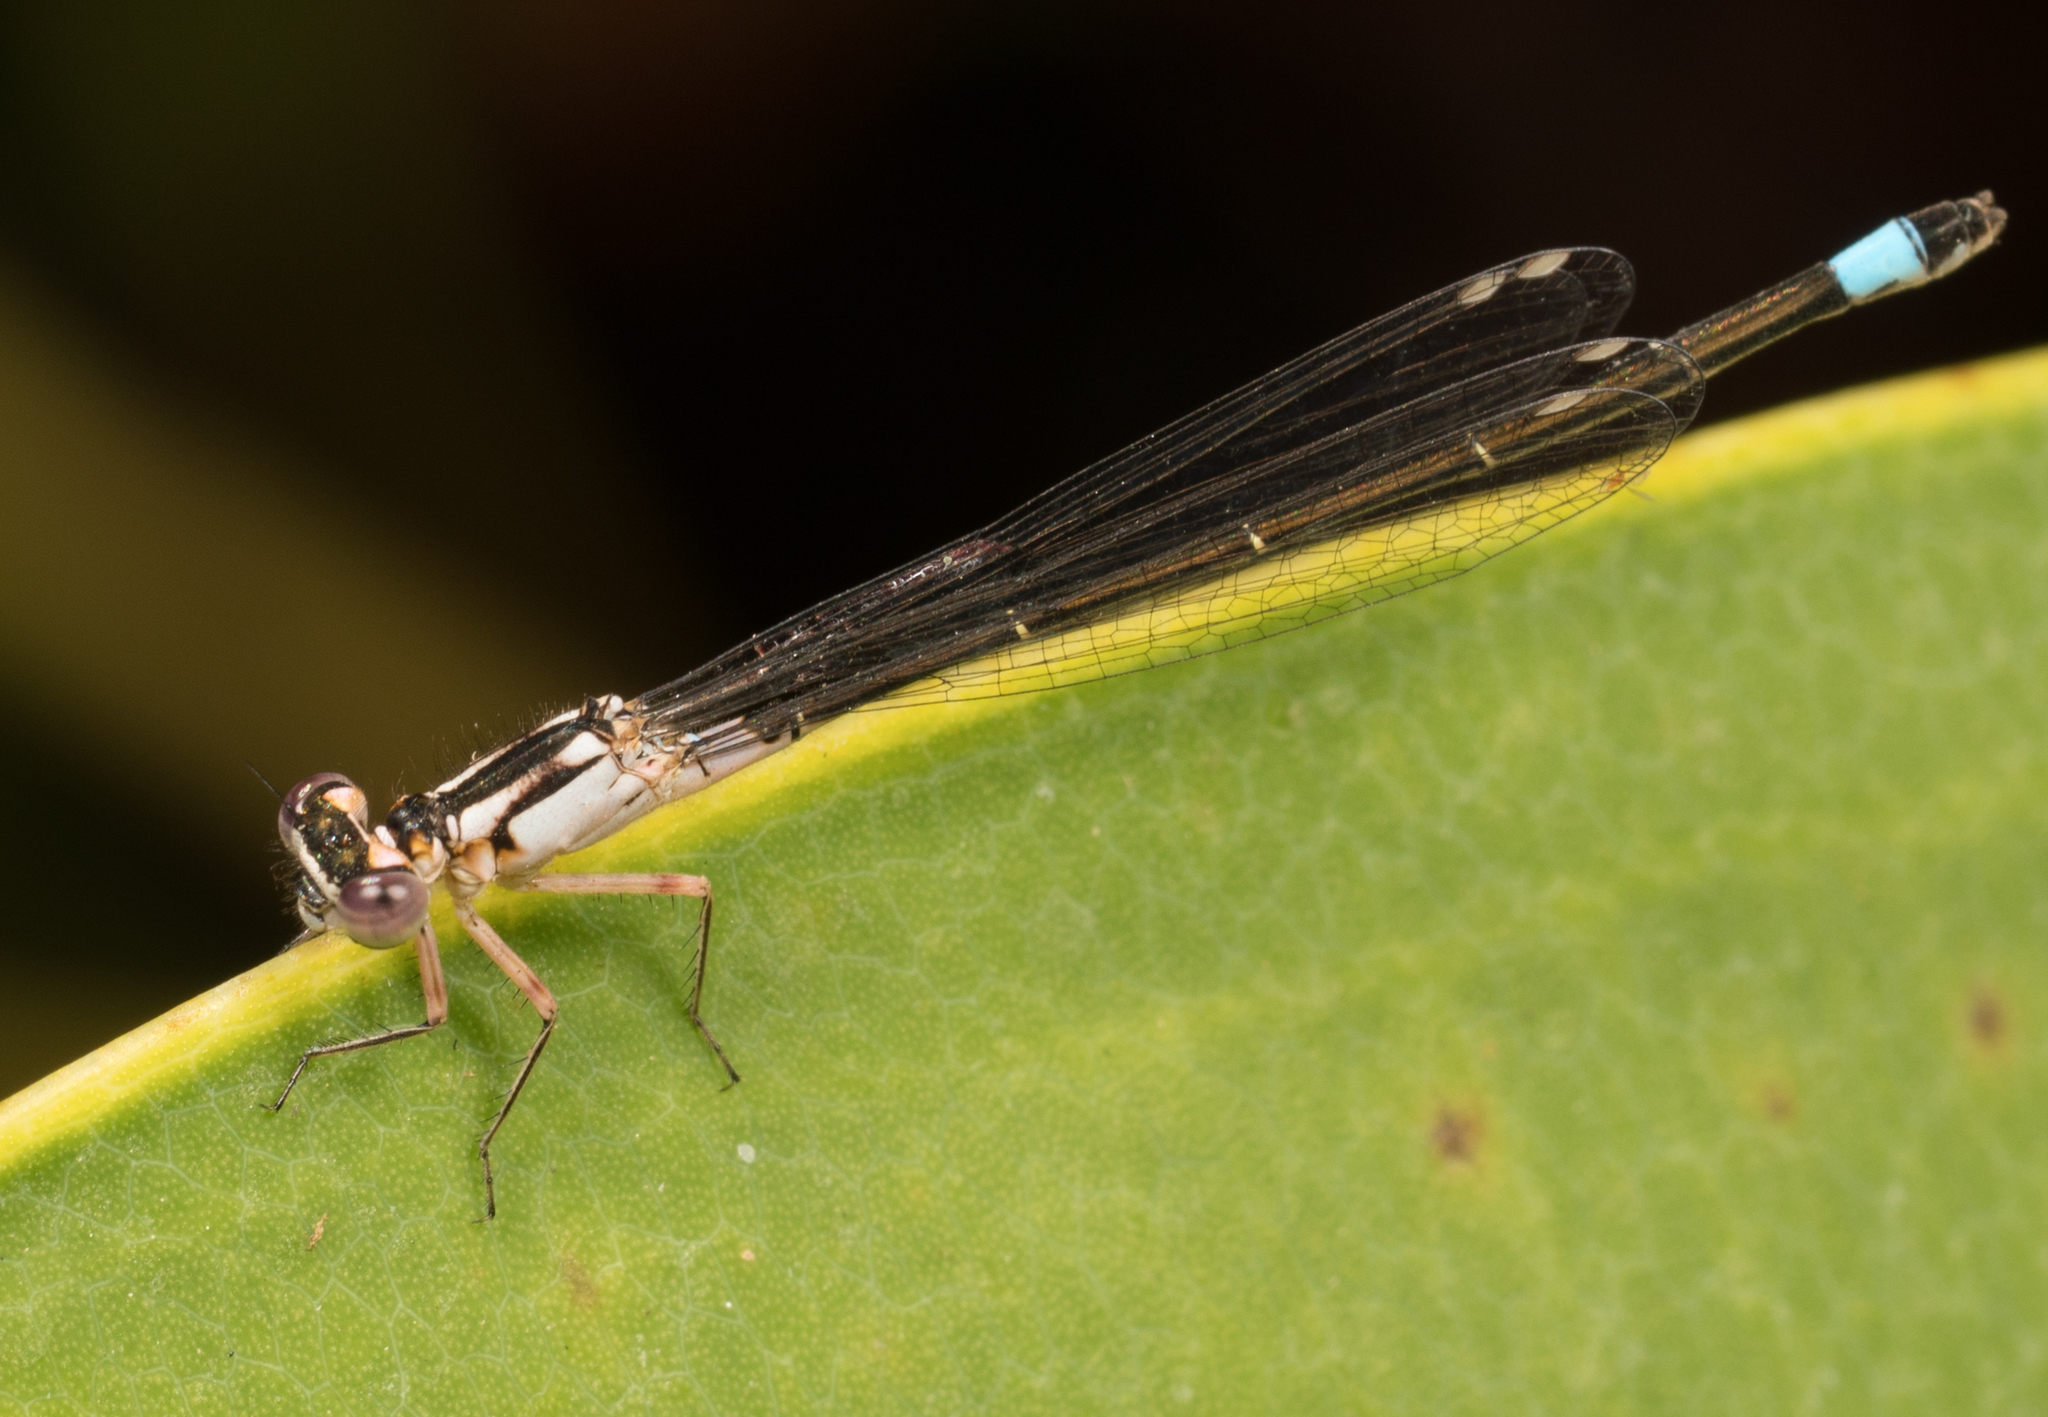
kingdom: Animalia
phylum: Arthropoda
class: Insecta
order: Odonata
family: Coenagrionidae
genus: Ischnura
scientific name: Ischnura cervula
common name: Pacific forktail
